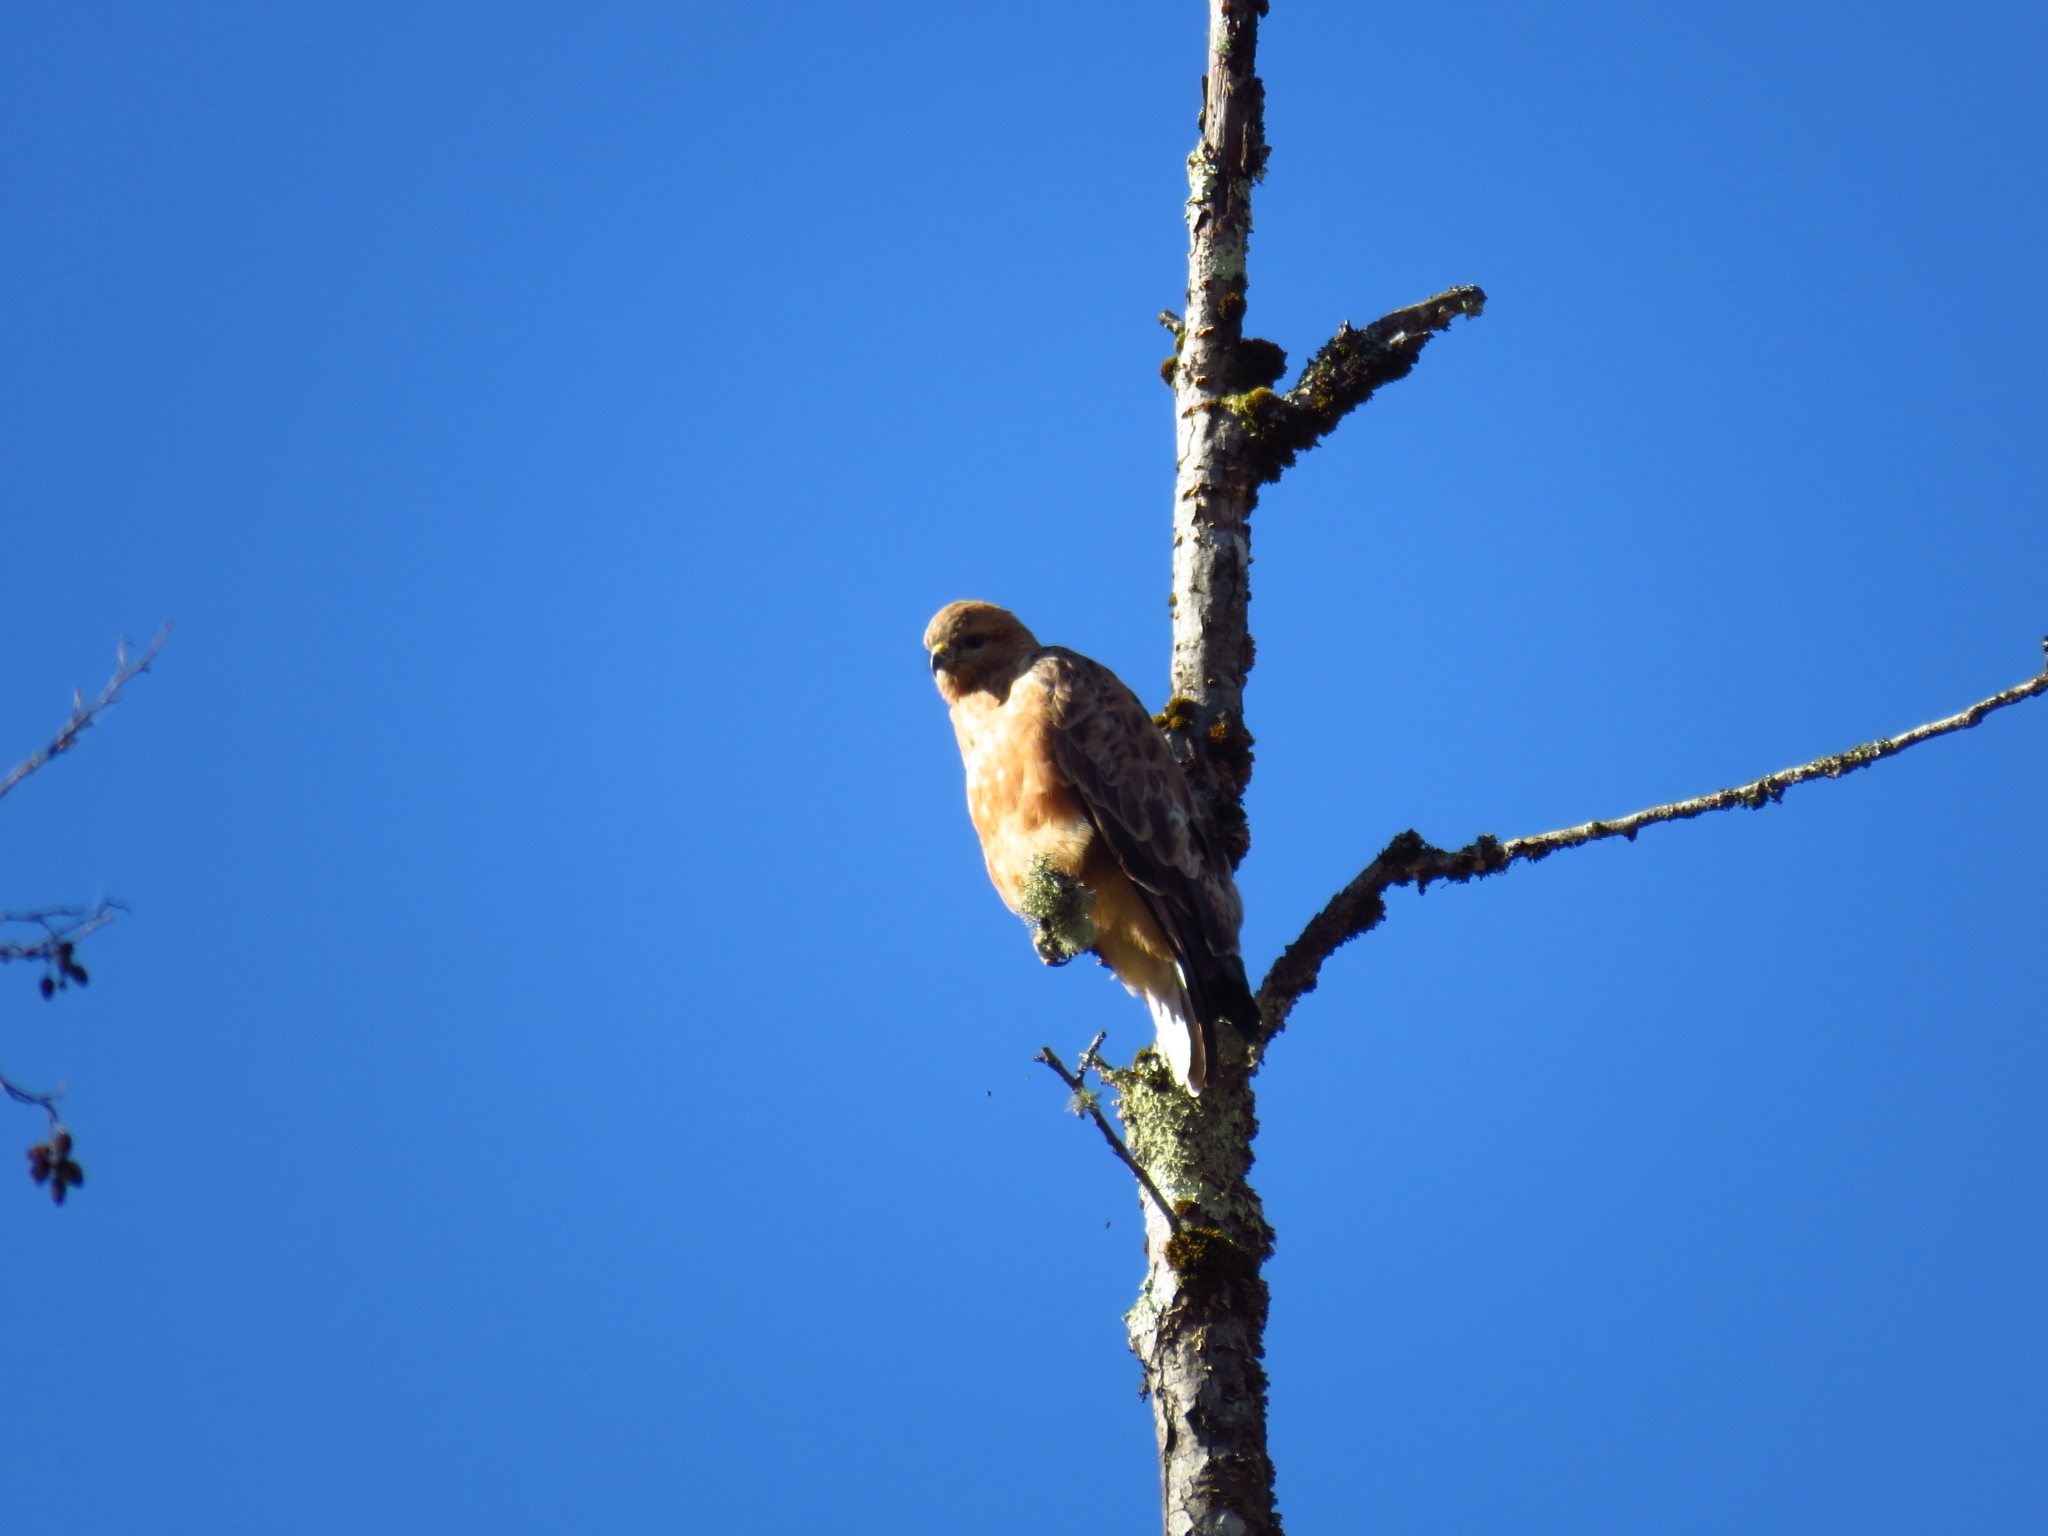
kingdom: Animalia
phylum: Chordata
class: Aves
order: Accipitriformes
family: Accipitridae
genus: Buteo
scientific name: Buteo buteo
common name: Common buzzard
